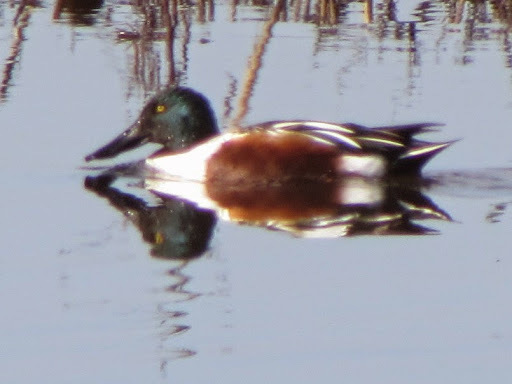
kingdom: Animalia
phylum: Chordata
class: Aves
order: Anseriformes
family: Anatidae
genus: Spatula
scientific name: Spatula clypeata
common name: Northern shoveler
